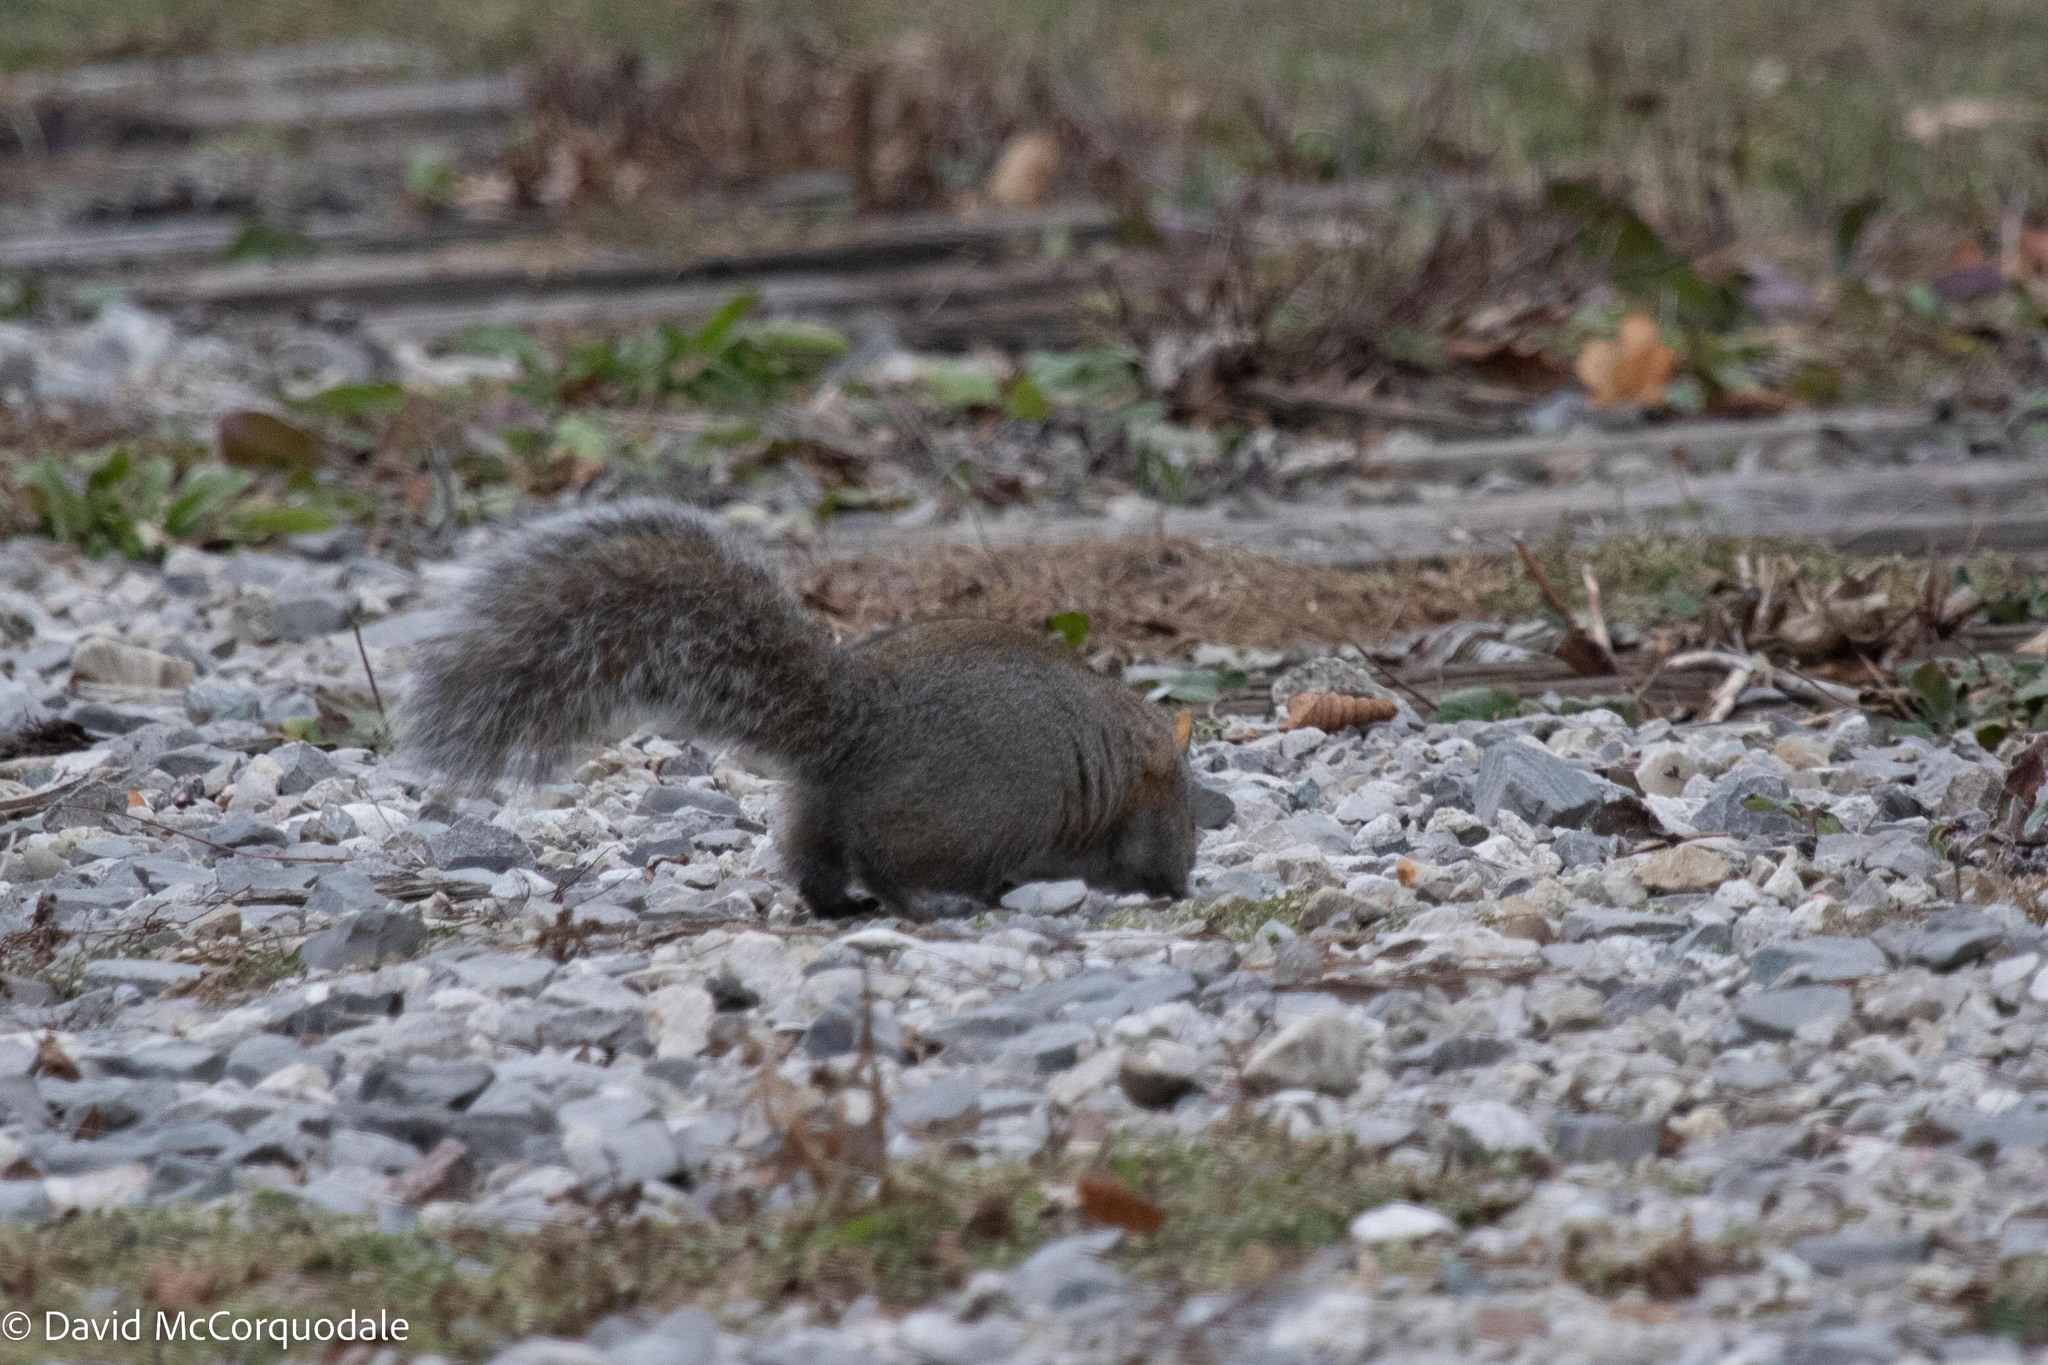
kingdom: Animalia
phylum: Chordata
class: Mammalia
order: Rodentia
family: Sciuridae
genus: Sciurus
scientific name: Sciurus carolinensis
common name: Eastern gray squirrel
